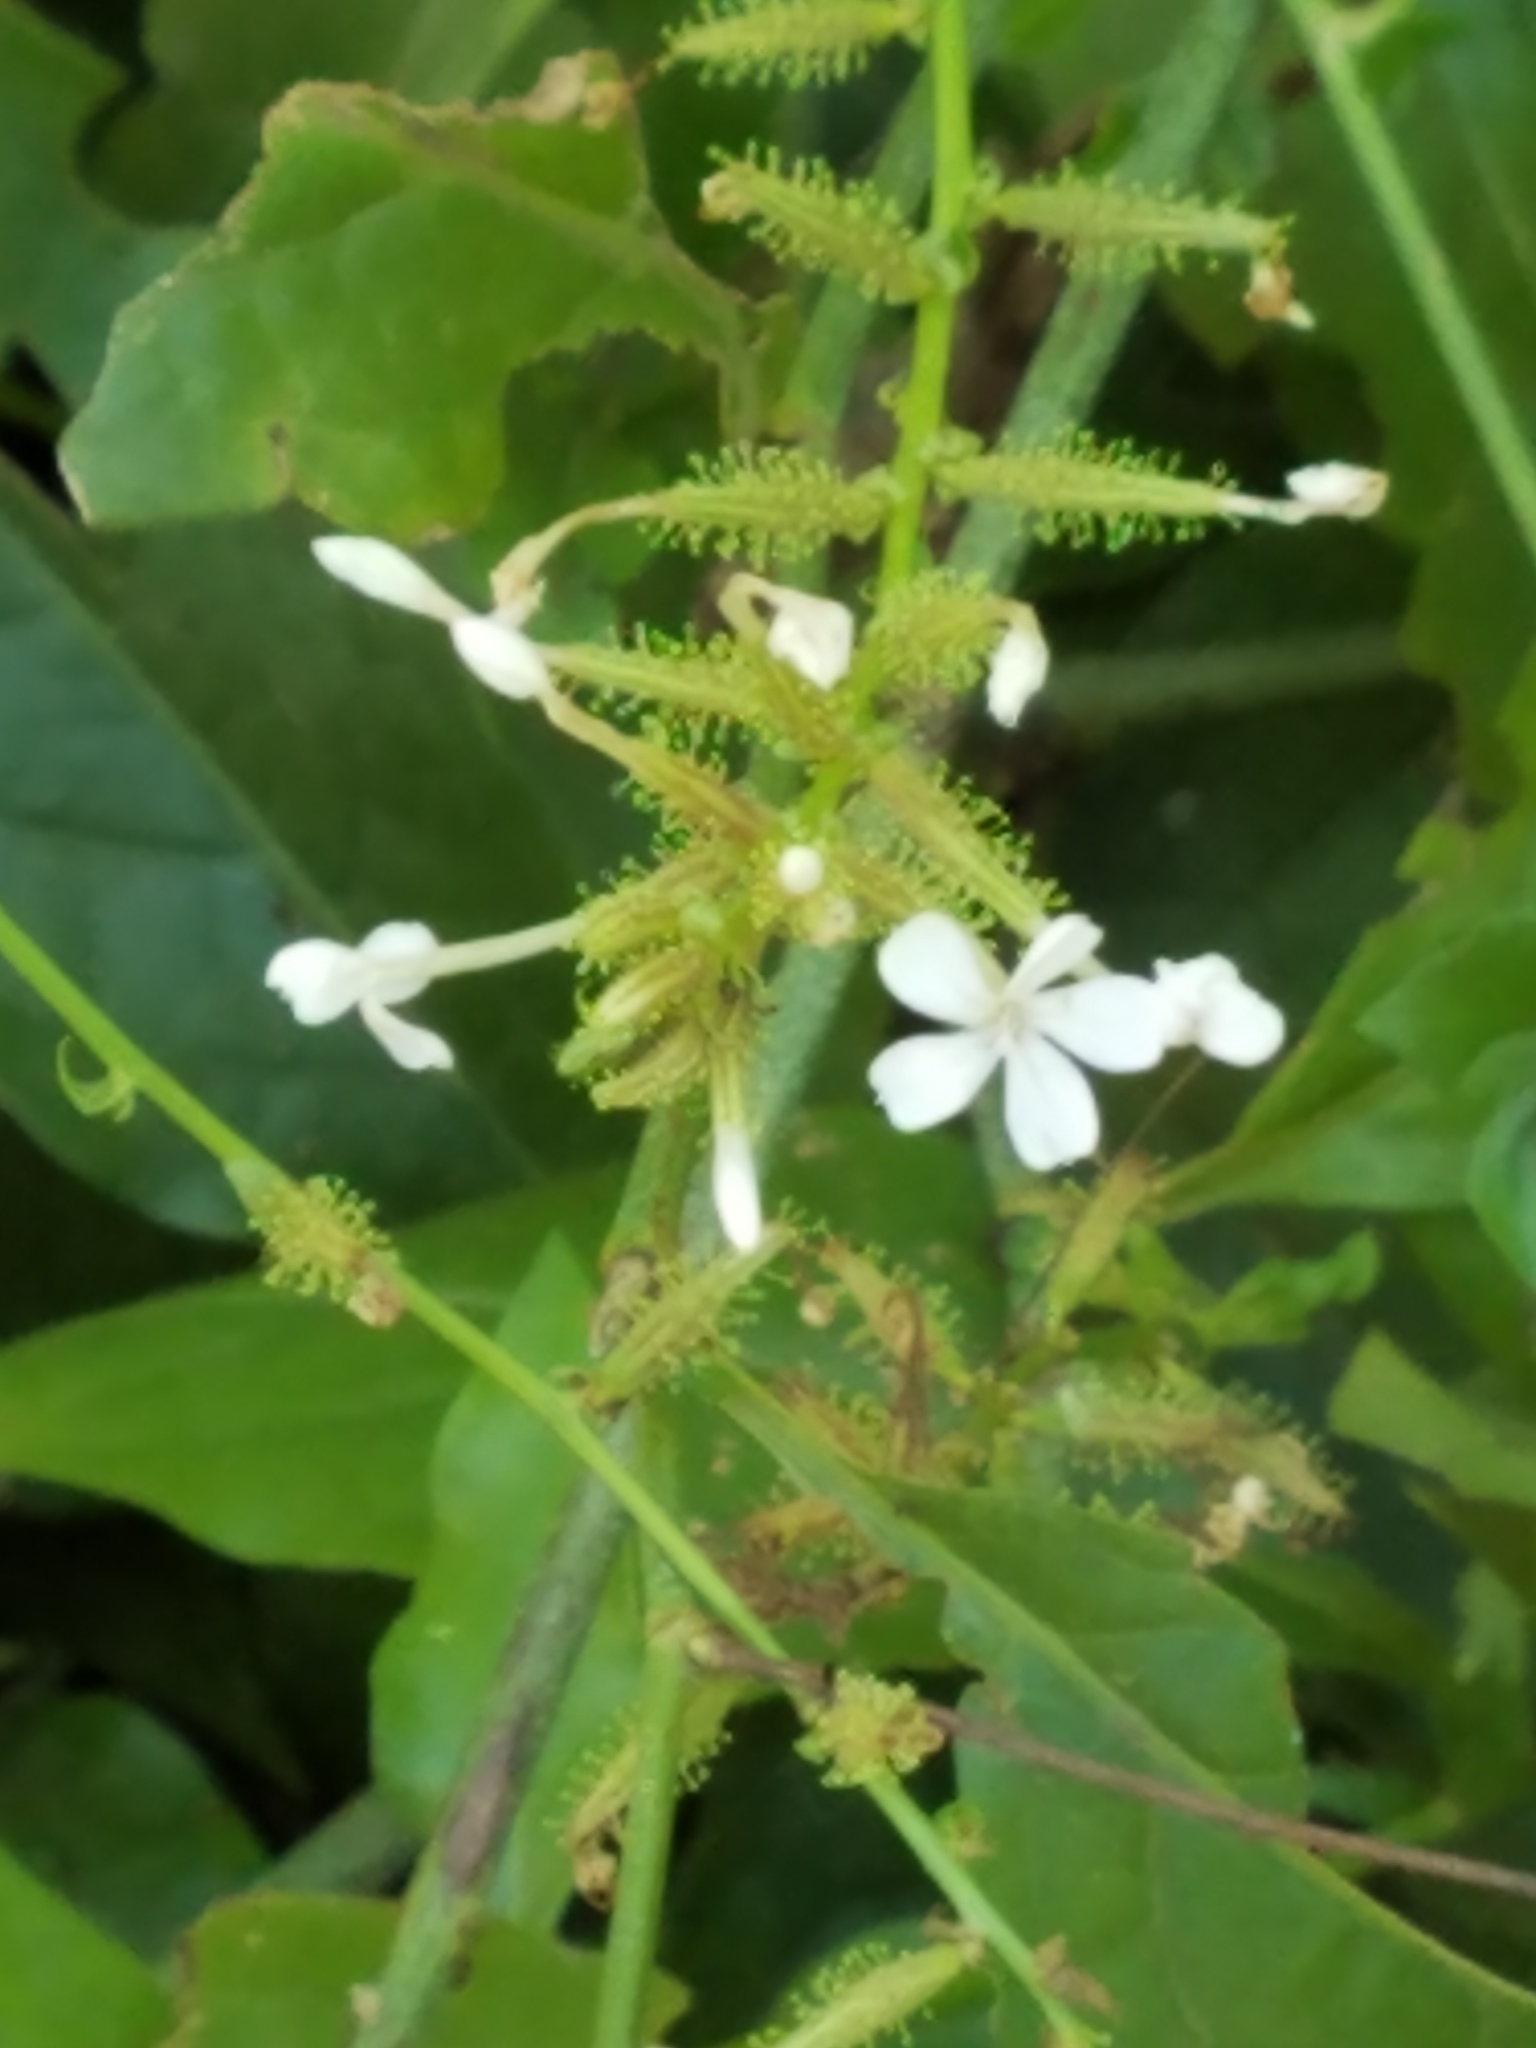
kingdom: Plantae
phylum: Tracheophyta
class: Magnoliopsida
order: Caryophyllales
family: Plumbaginaceae
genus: Plumbago
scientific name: Plumbago zeylanica
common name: Doctorbush
